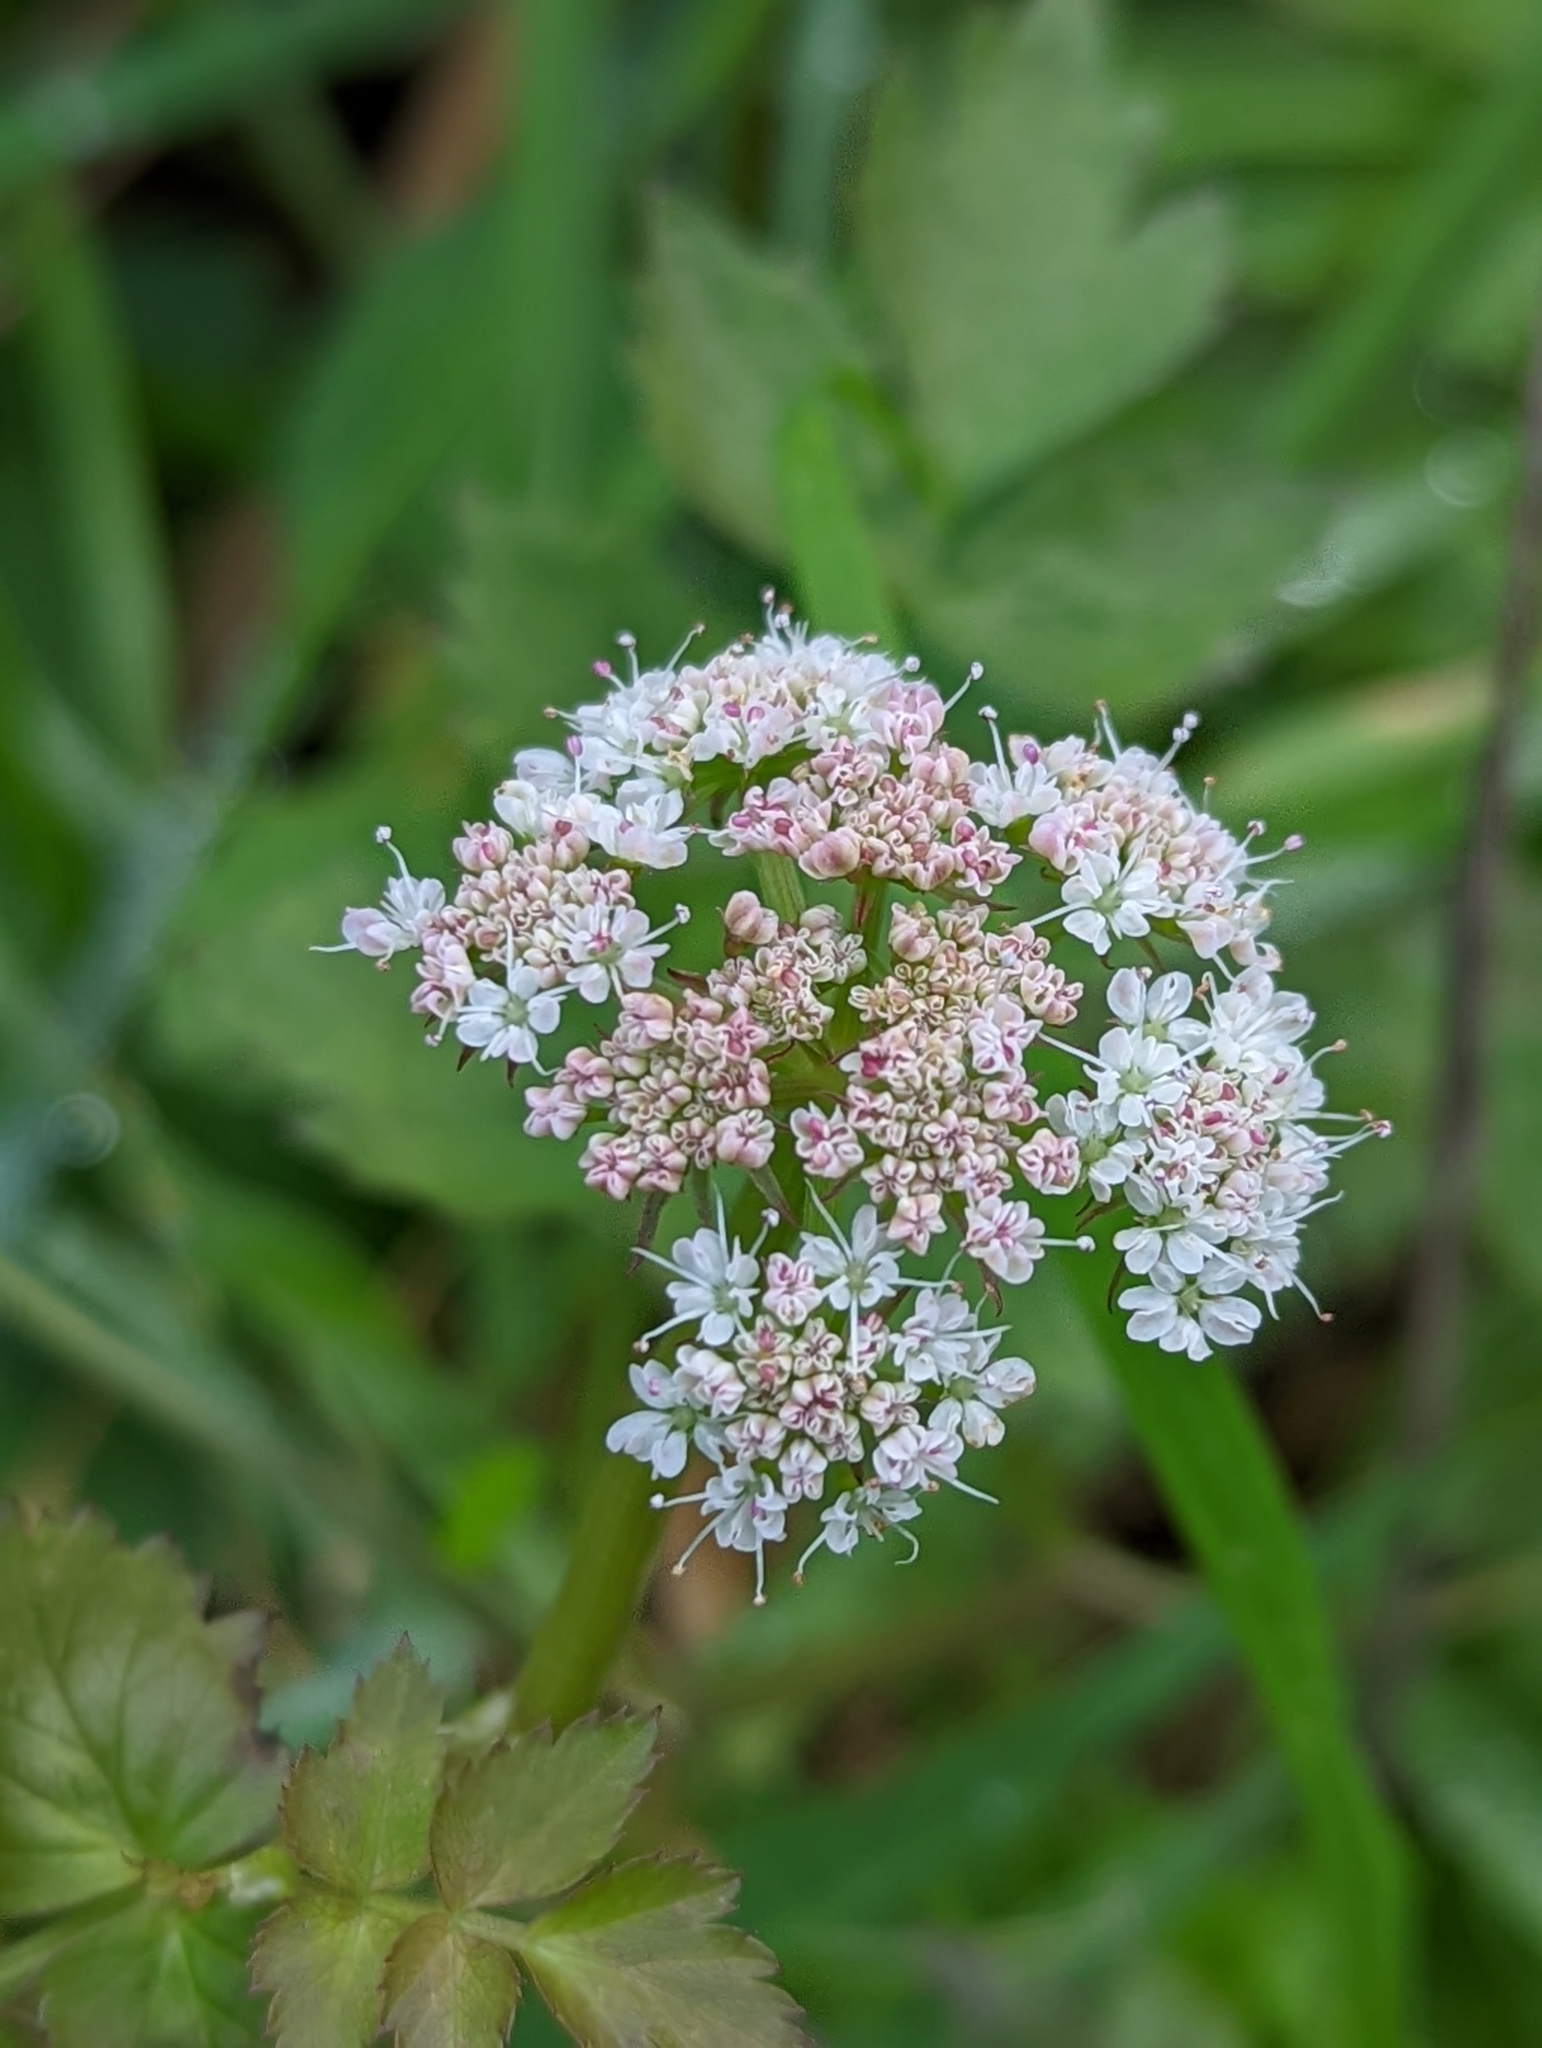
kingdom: Plantae
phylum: Tracheophyta
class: Magnoliopsida
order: Apiales
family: Apiaceae
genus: Oenanthe
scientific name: Oenanthe sarmentosa
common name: American water-parsley
